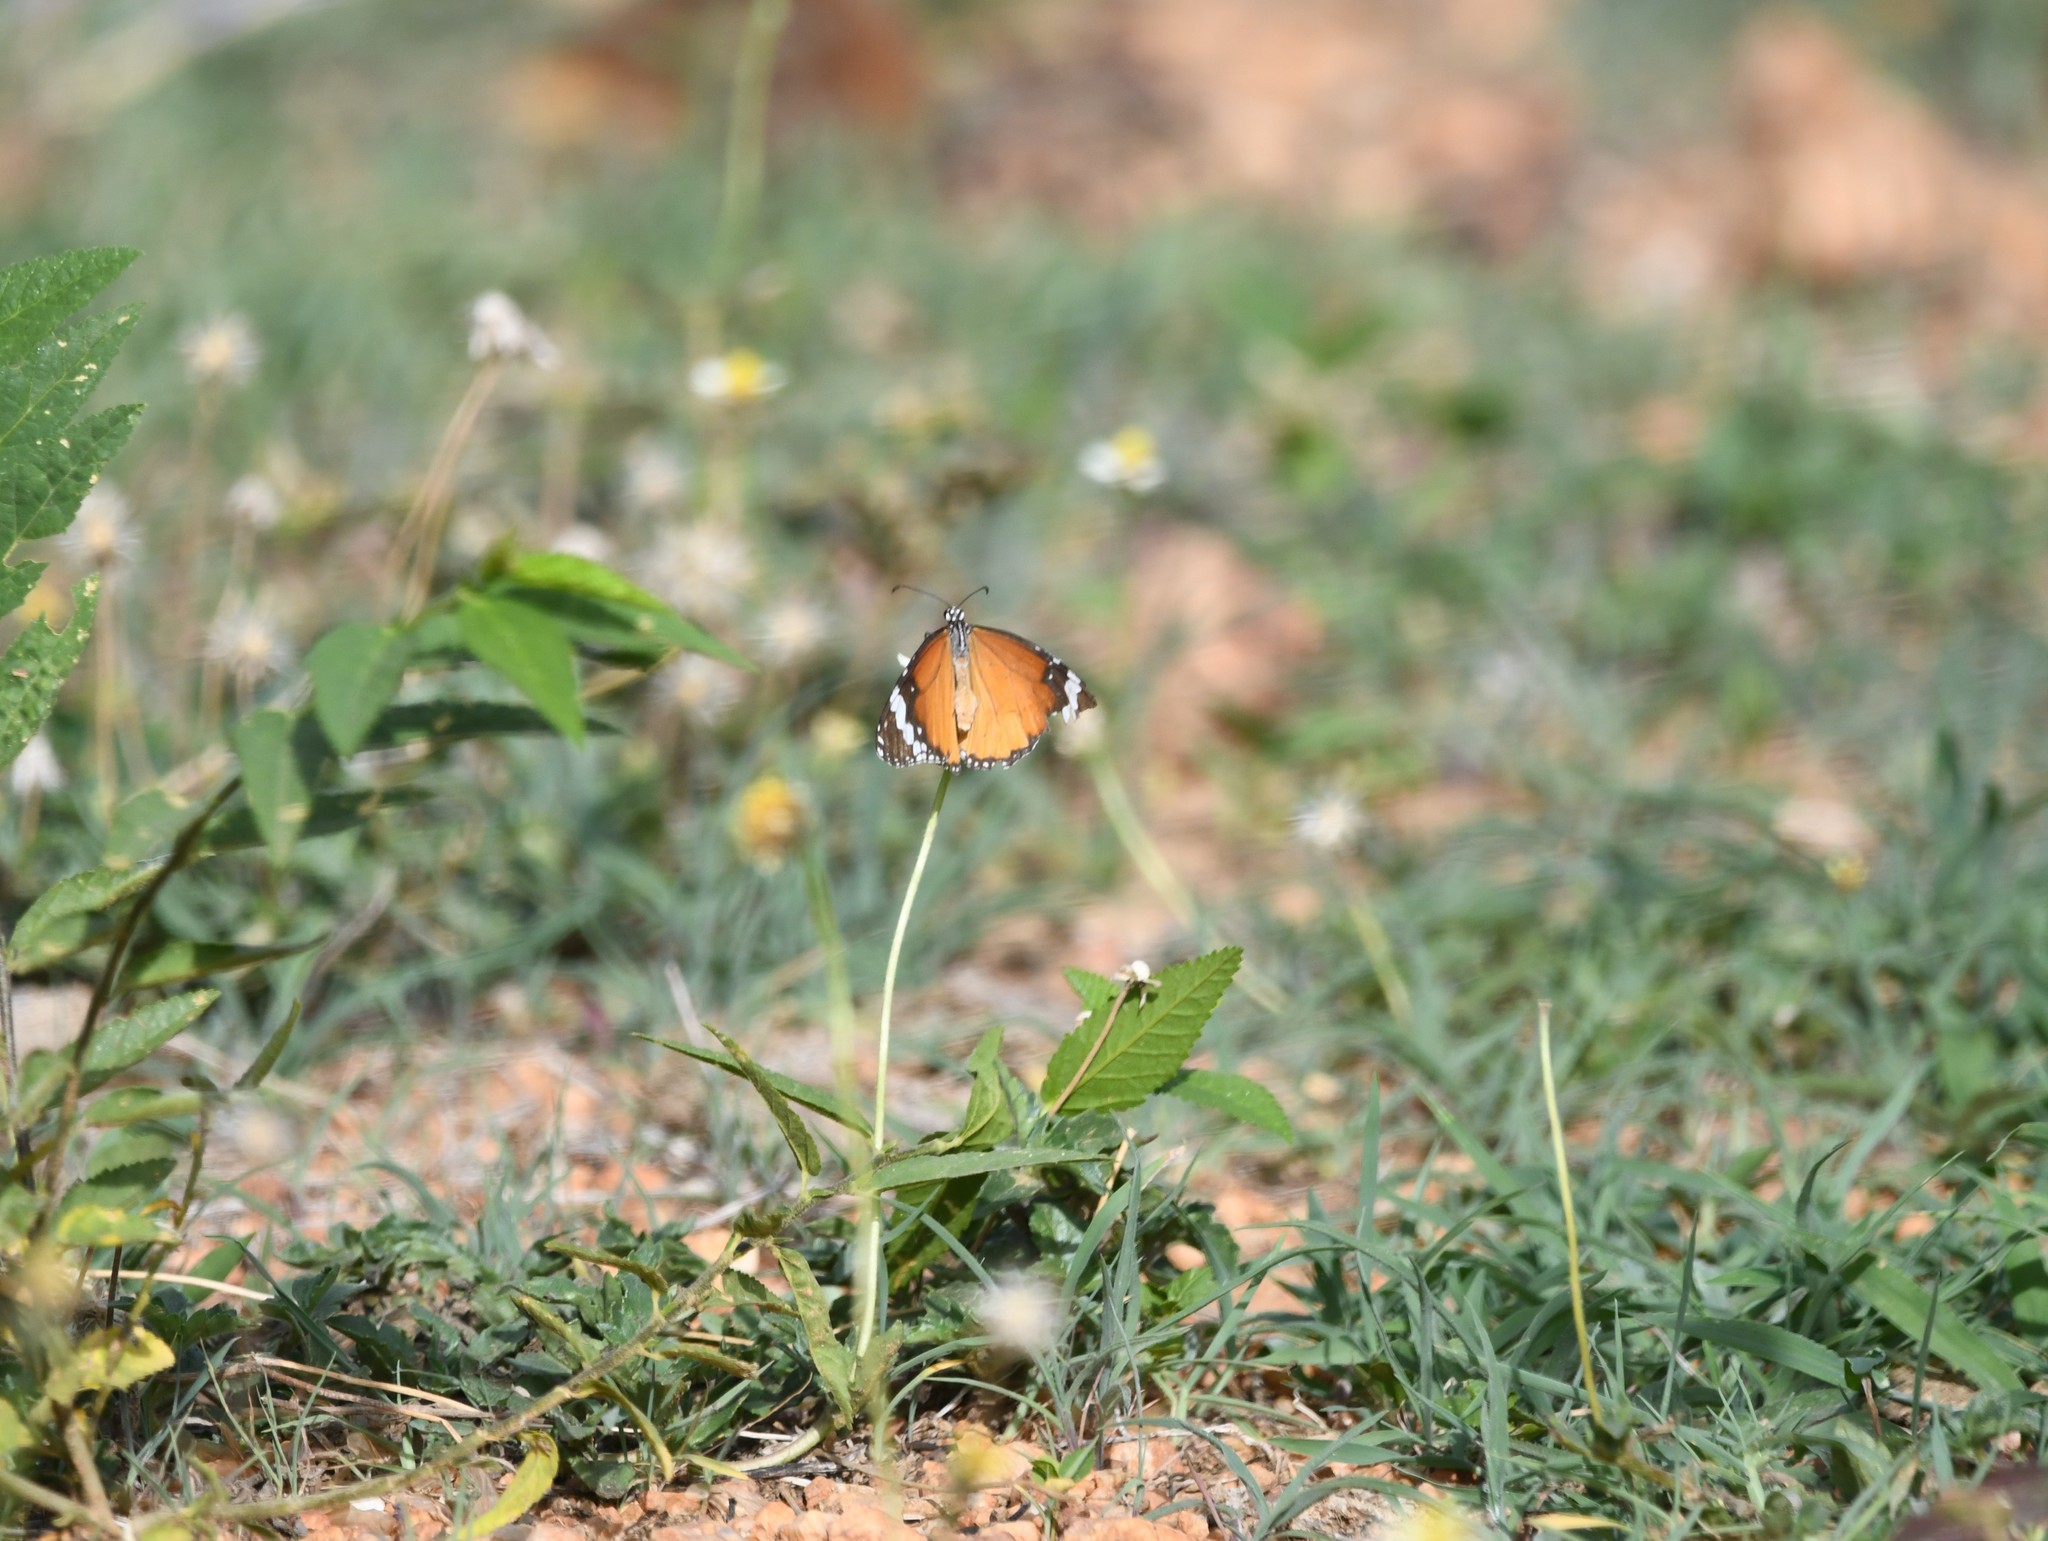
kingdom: Animalia
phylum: Arthropoda
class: Insecta
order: Lepidoptera
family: Nymphalidae
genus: Danaus
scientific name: Danaus chrysippus
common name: Plain tiger
